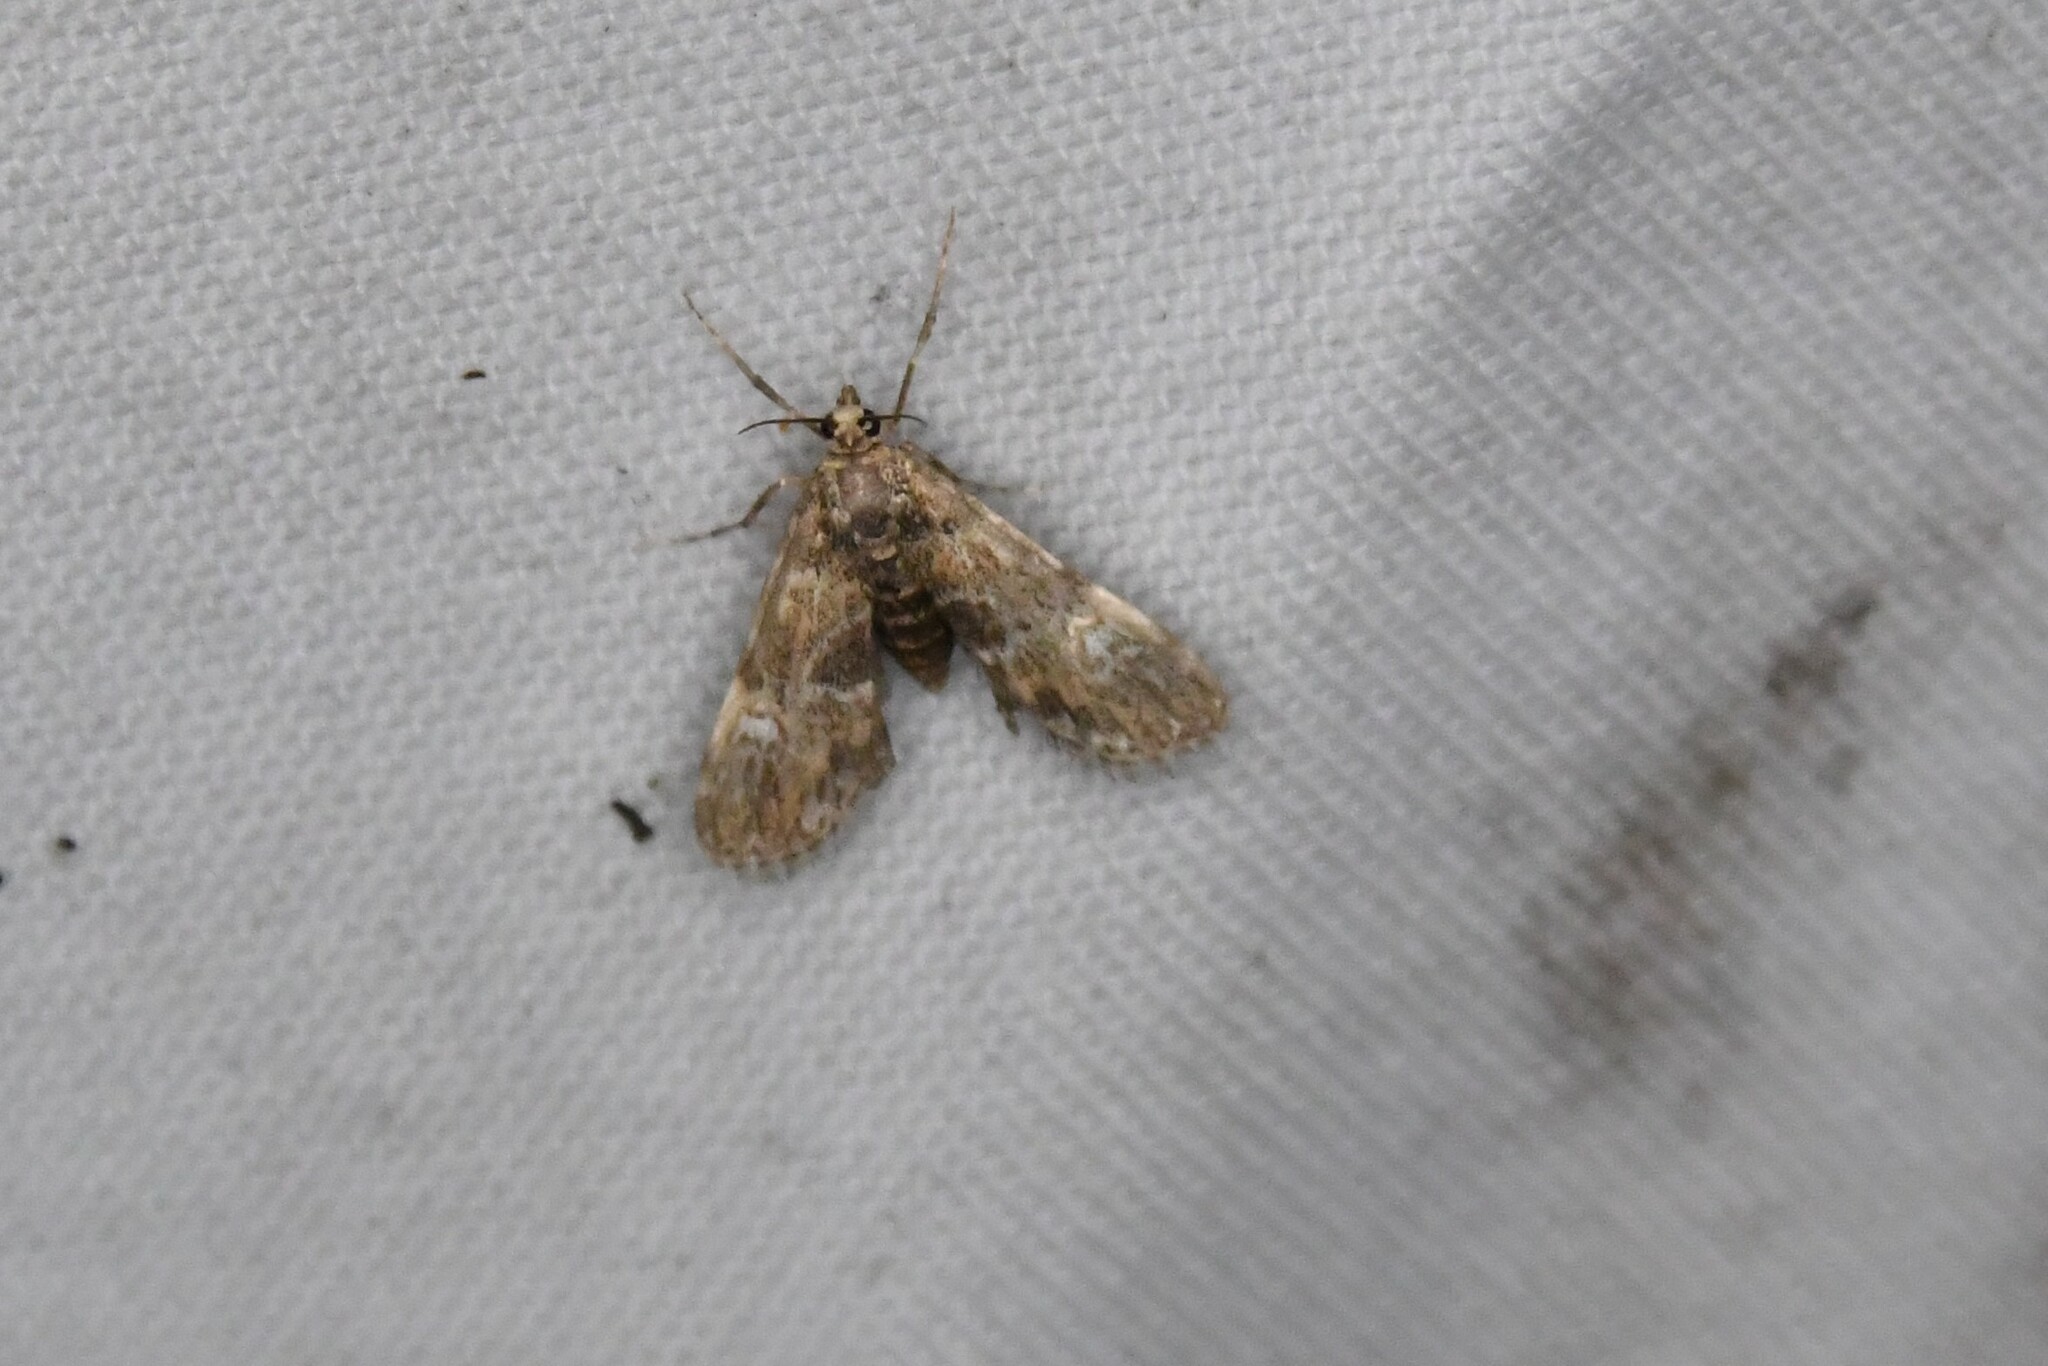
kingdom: Animalia
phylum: Arthropoda
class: Insecta
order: Lepidoptera
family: Crambidae
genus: Elophila
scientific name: Elophila obliteralis
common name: Waterlily leafcutter moth
